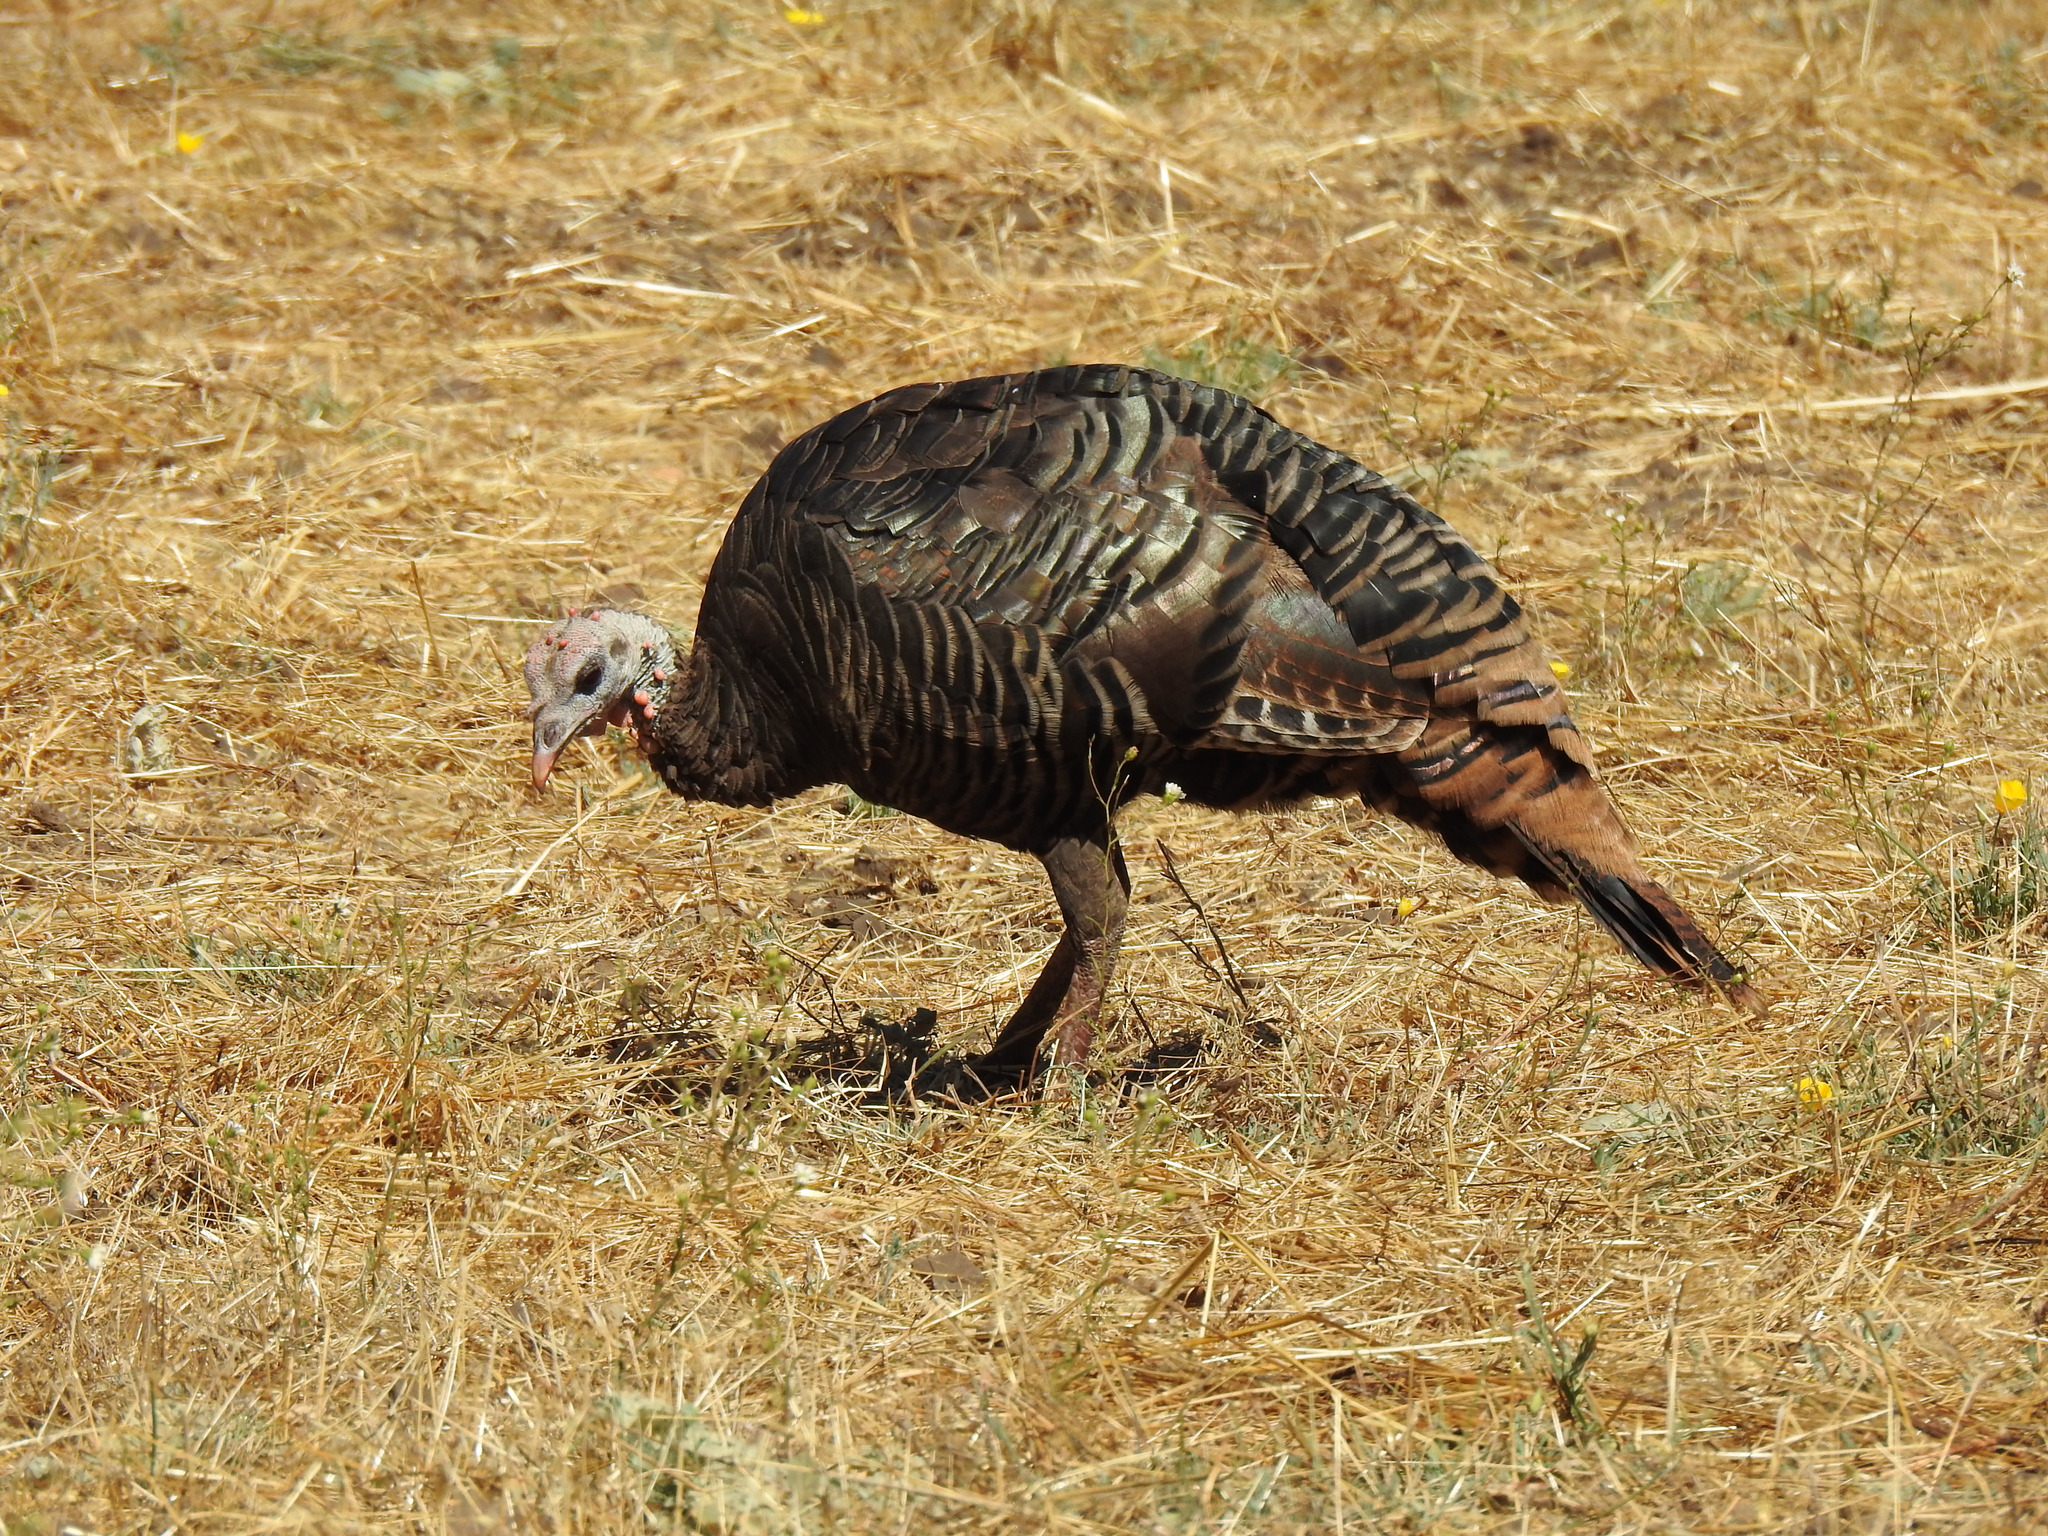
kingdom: Animalia
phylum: Chordata
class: Aves
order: Galliformes
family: Phasianidae
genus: Meleagris
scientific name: Meleagris gallopavo
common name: Wild turkey
